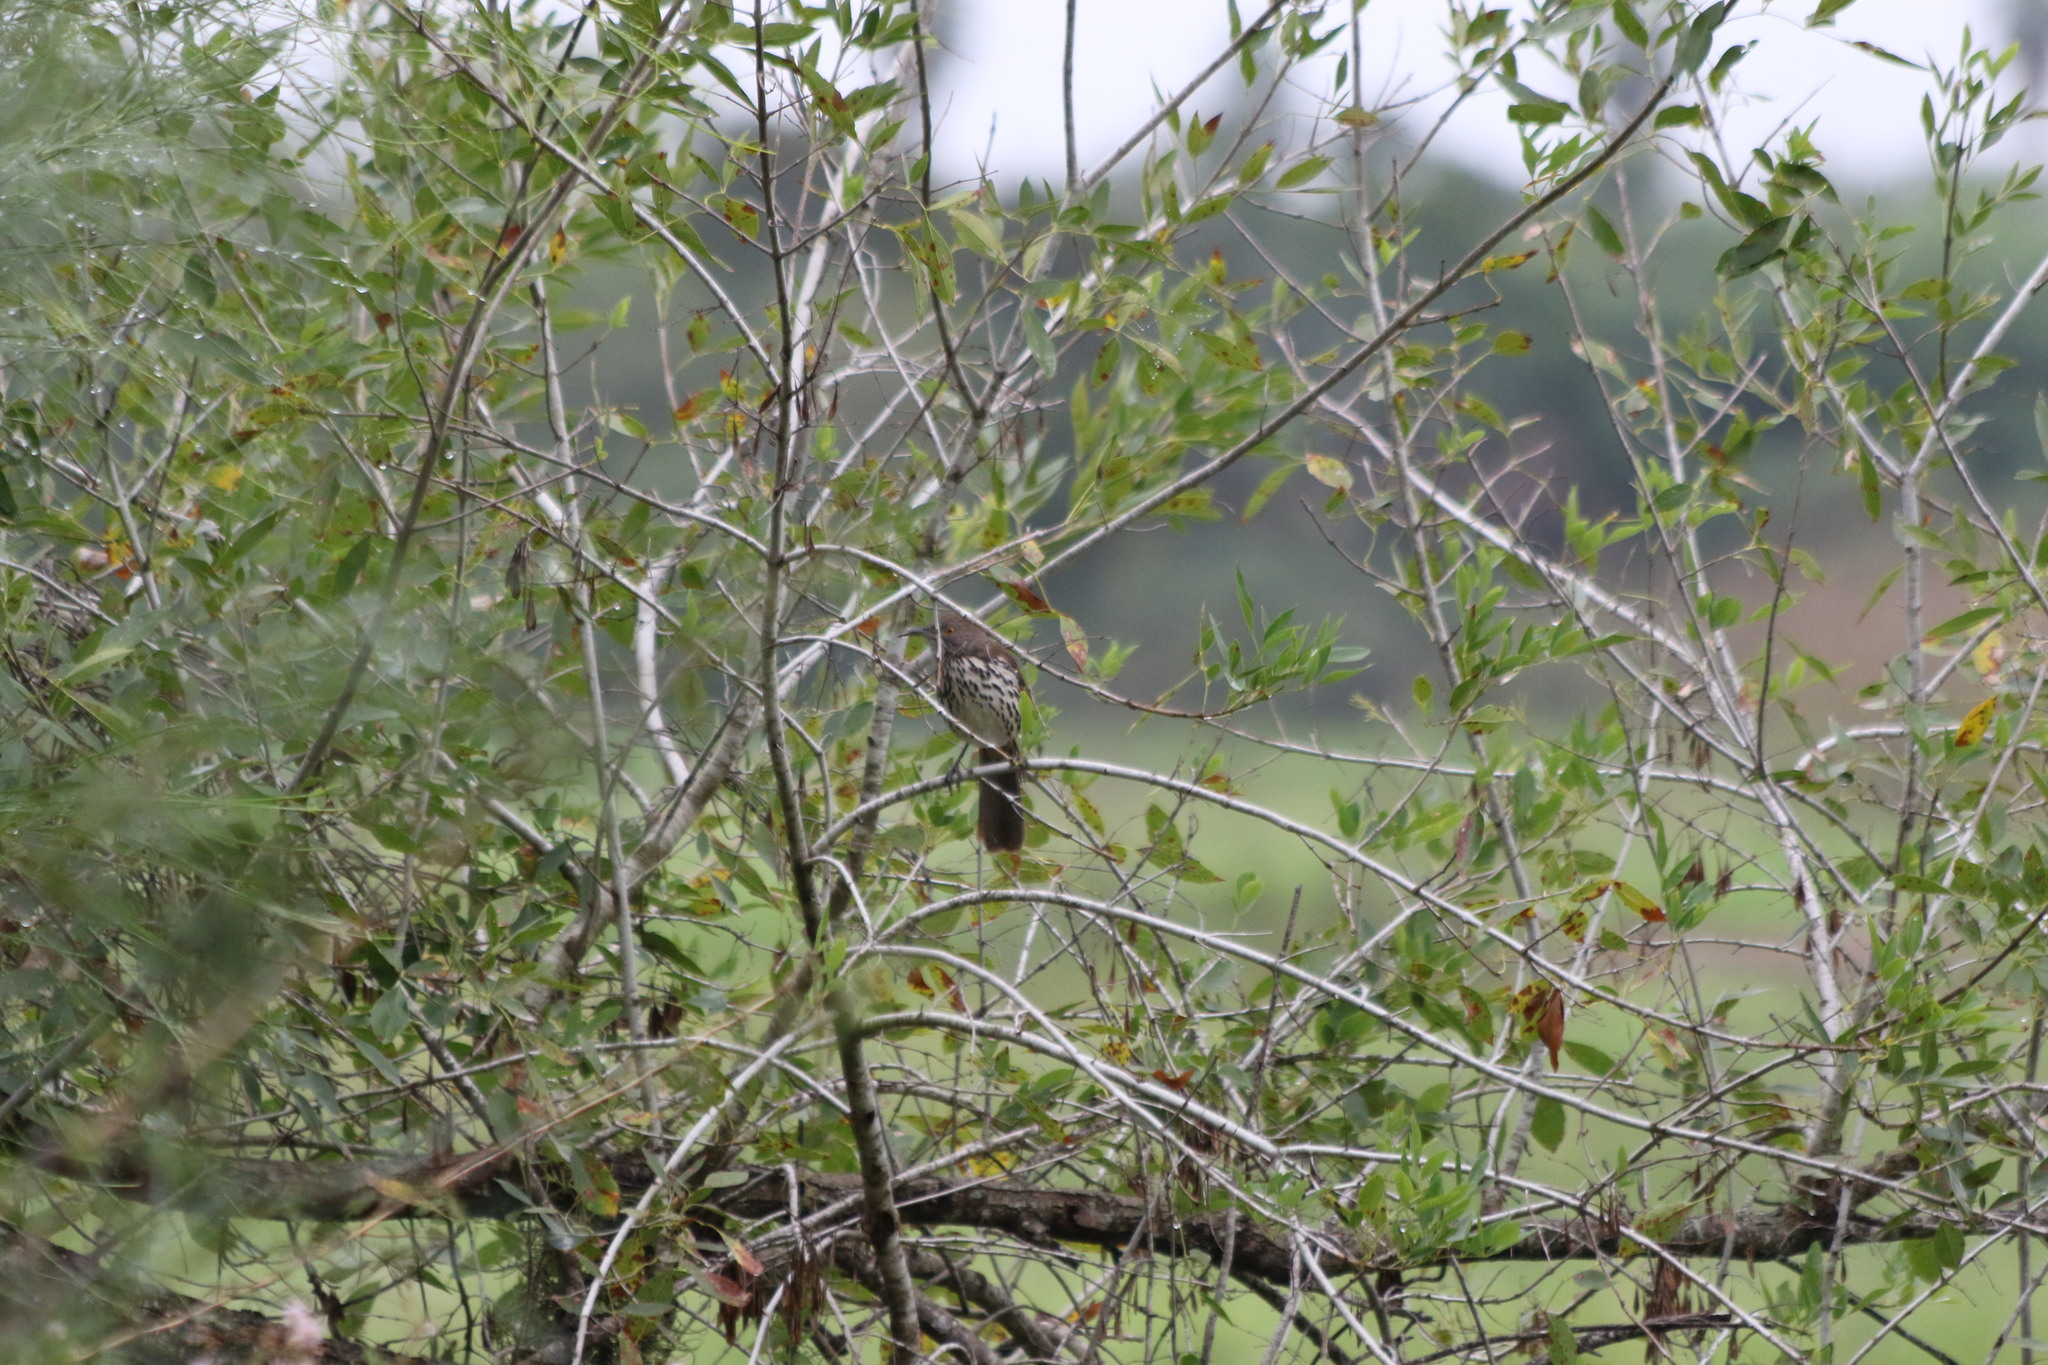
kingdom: Animalia
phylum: Chordata
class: Aves
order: Passeriformes
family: Mimidae
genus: Toxostoma
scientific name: Toxostoma longirostre
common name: Long-billed thrasher
